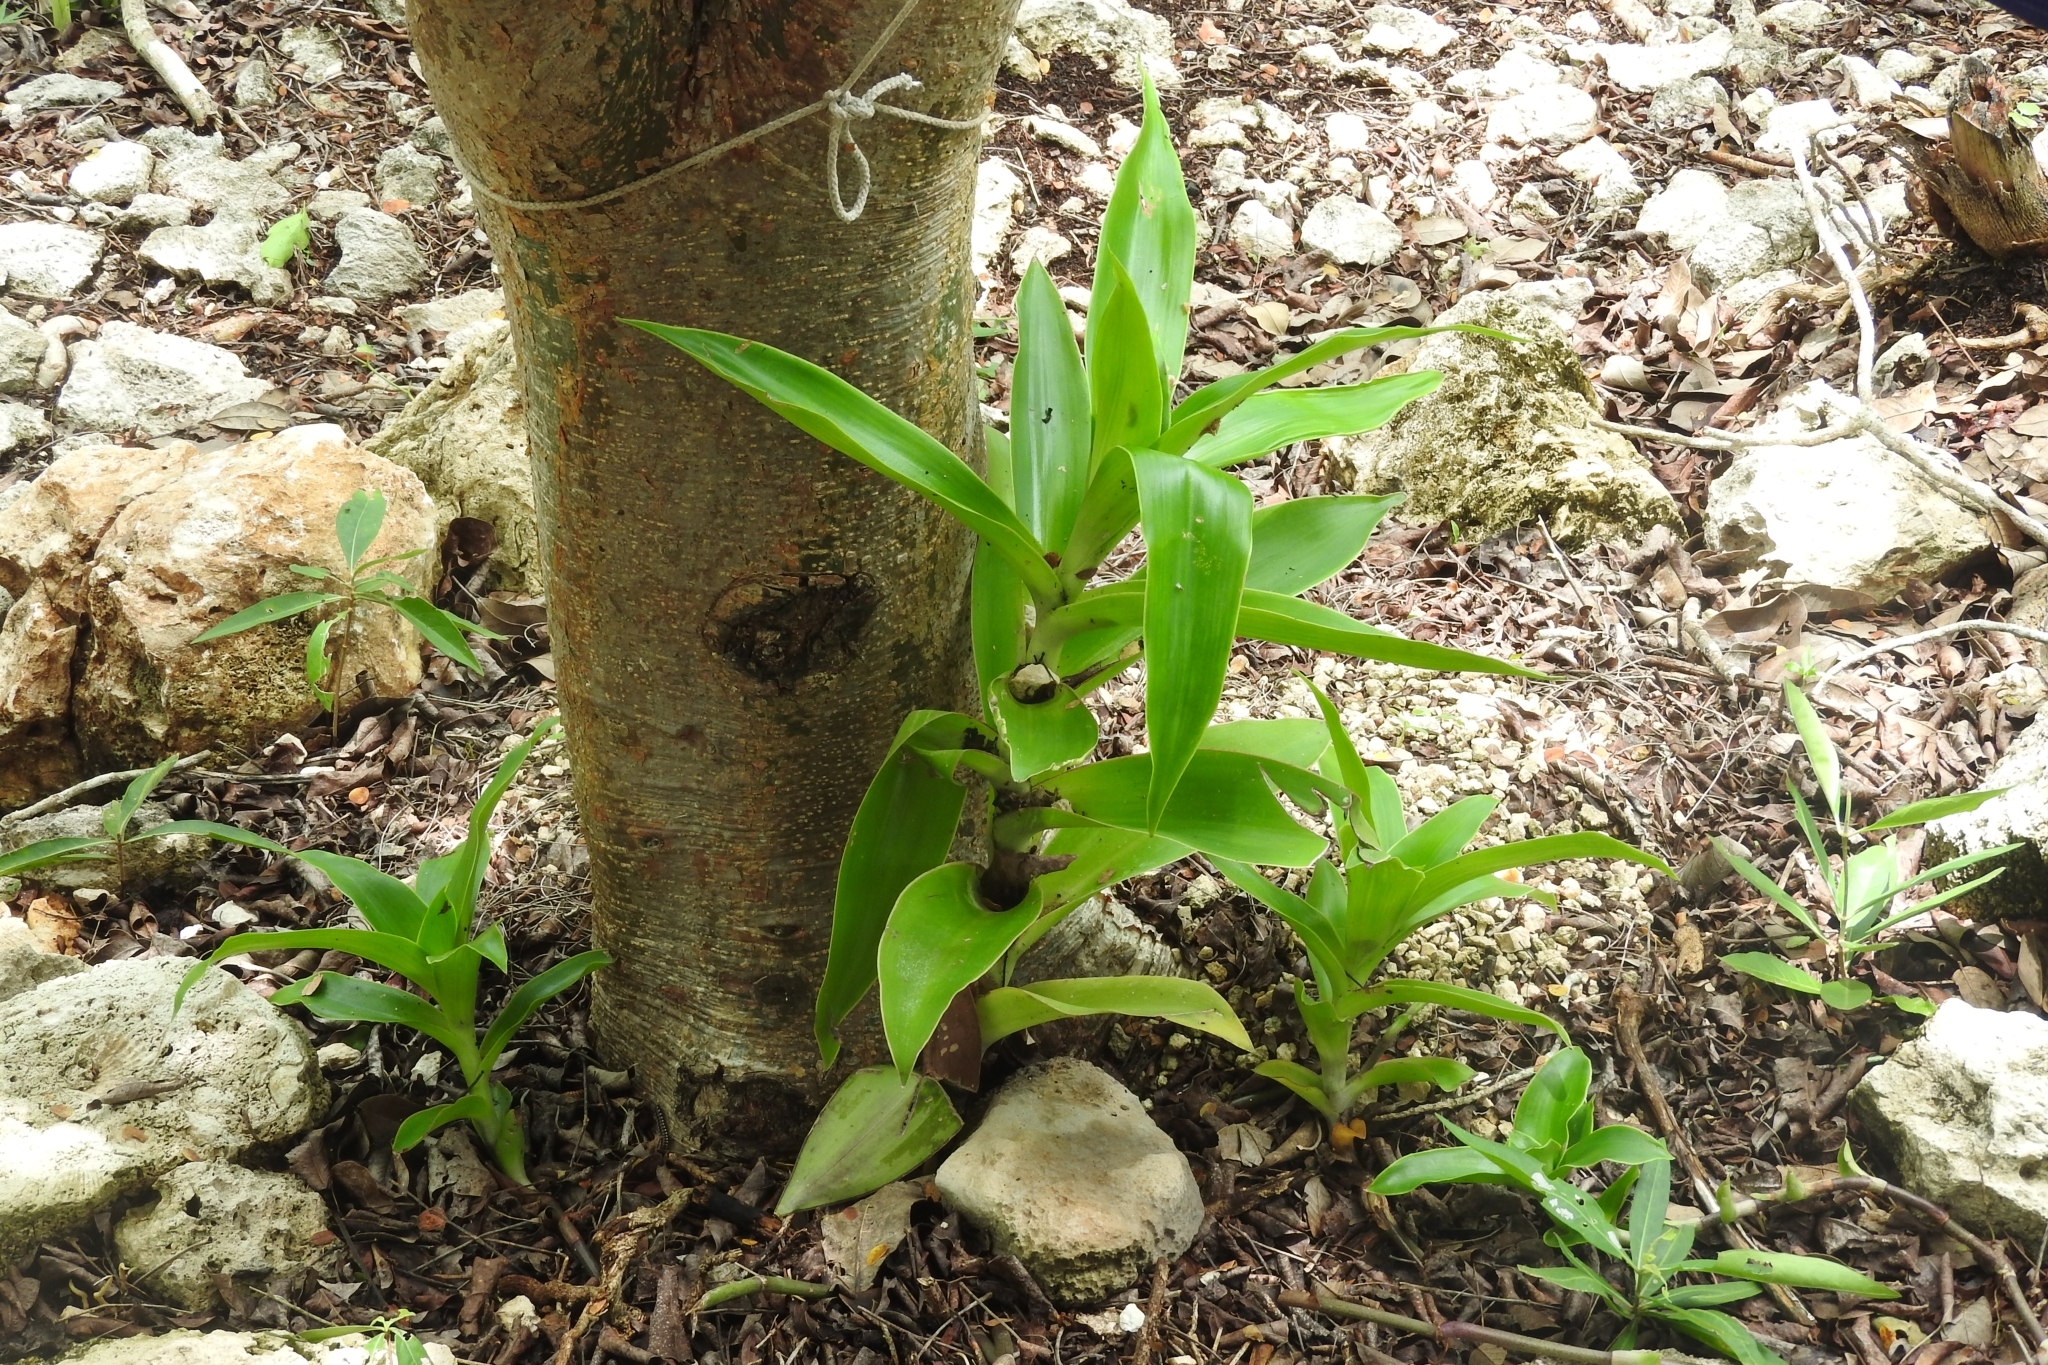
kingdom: Plantae
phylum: Tracheophyta
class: Liliopsida
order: Commelinales
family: Commelinaceae
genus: Callisia
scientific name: Callisia fragrans
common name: Basketplant
